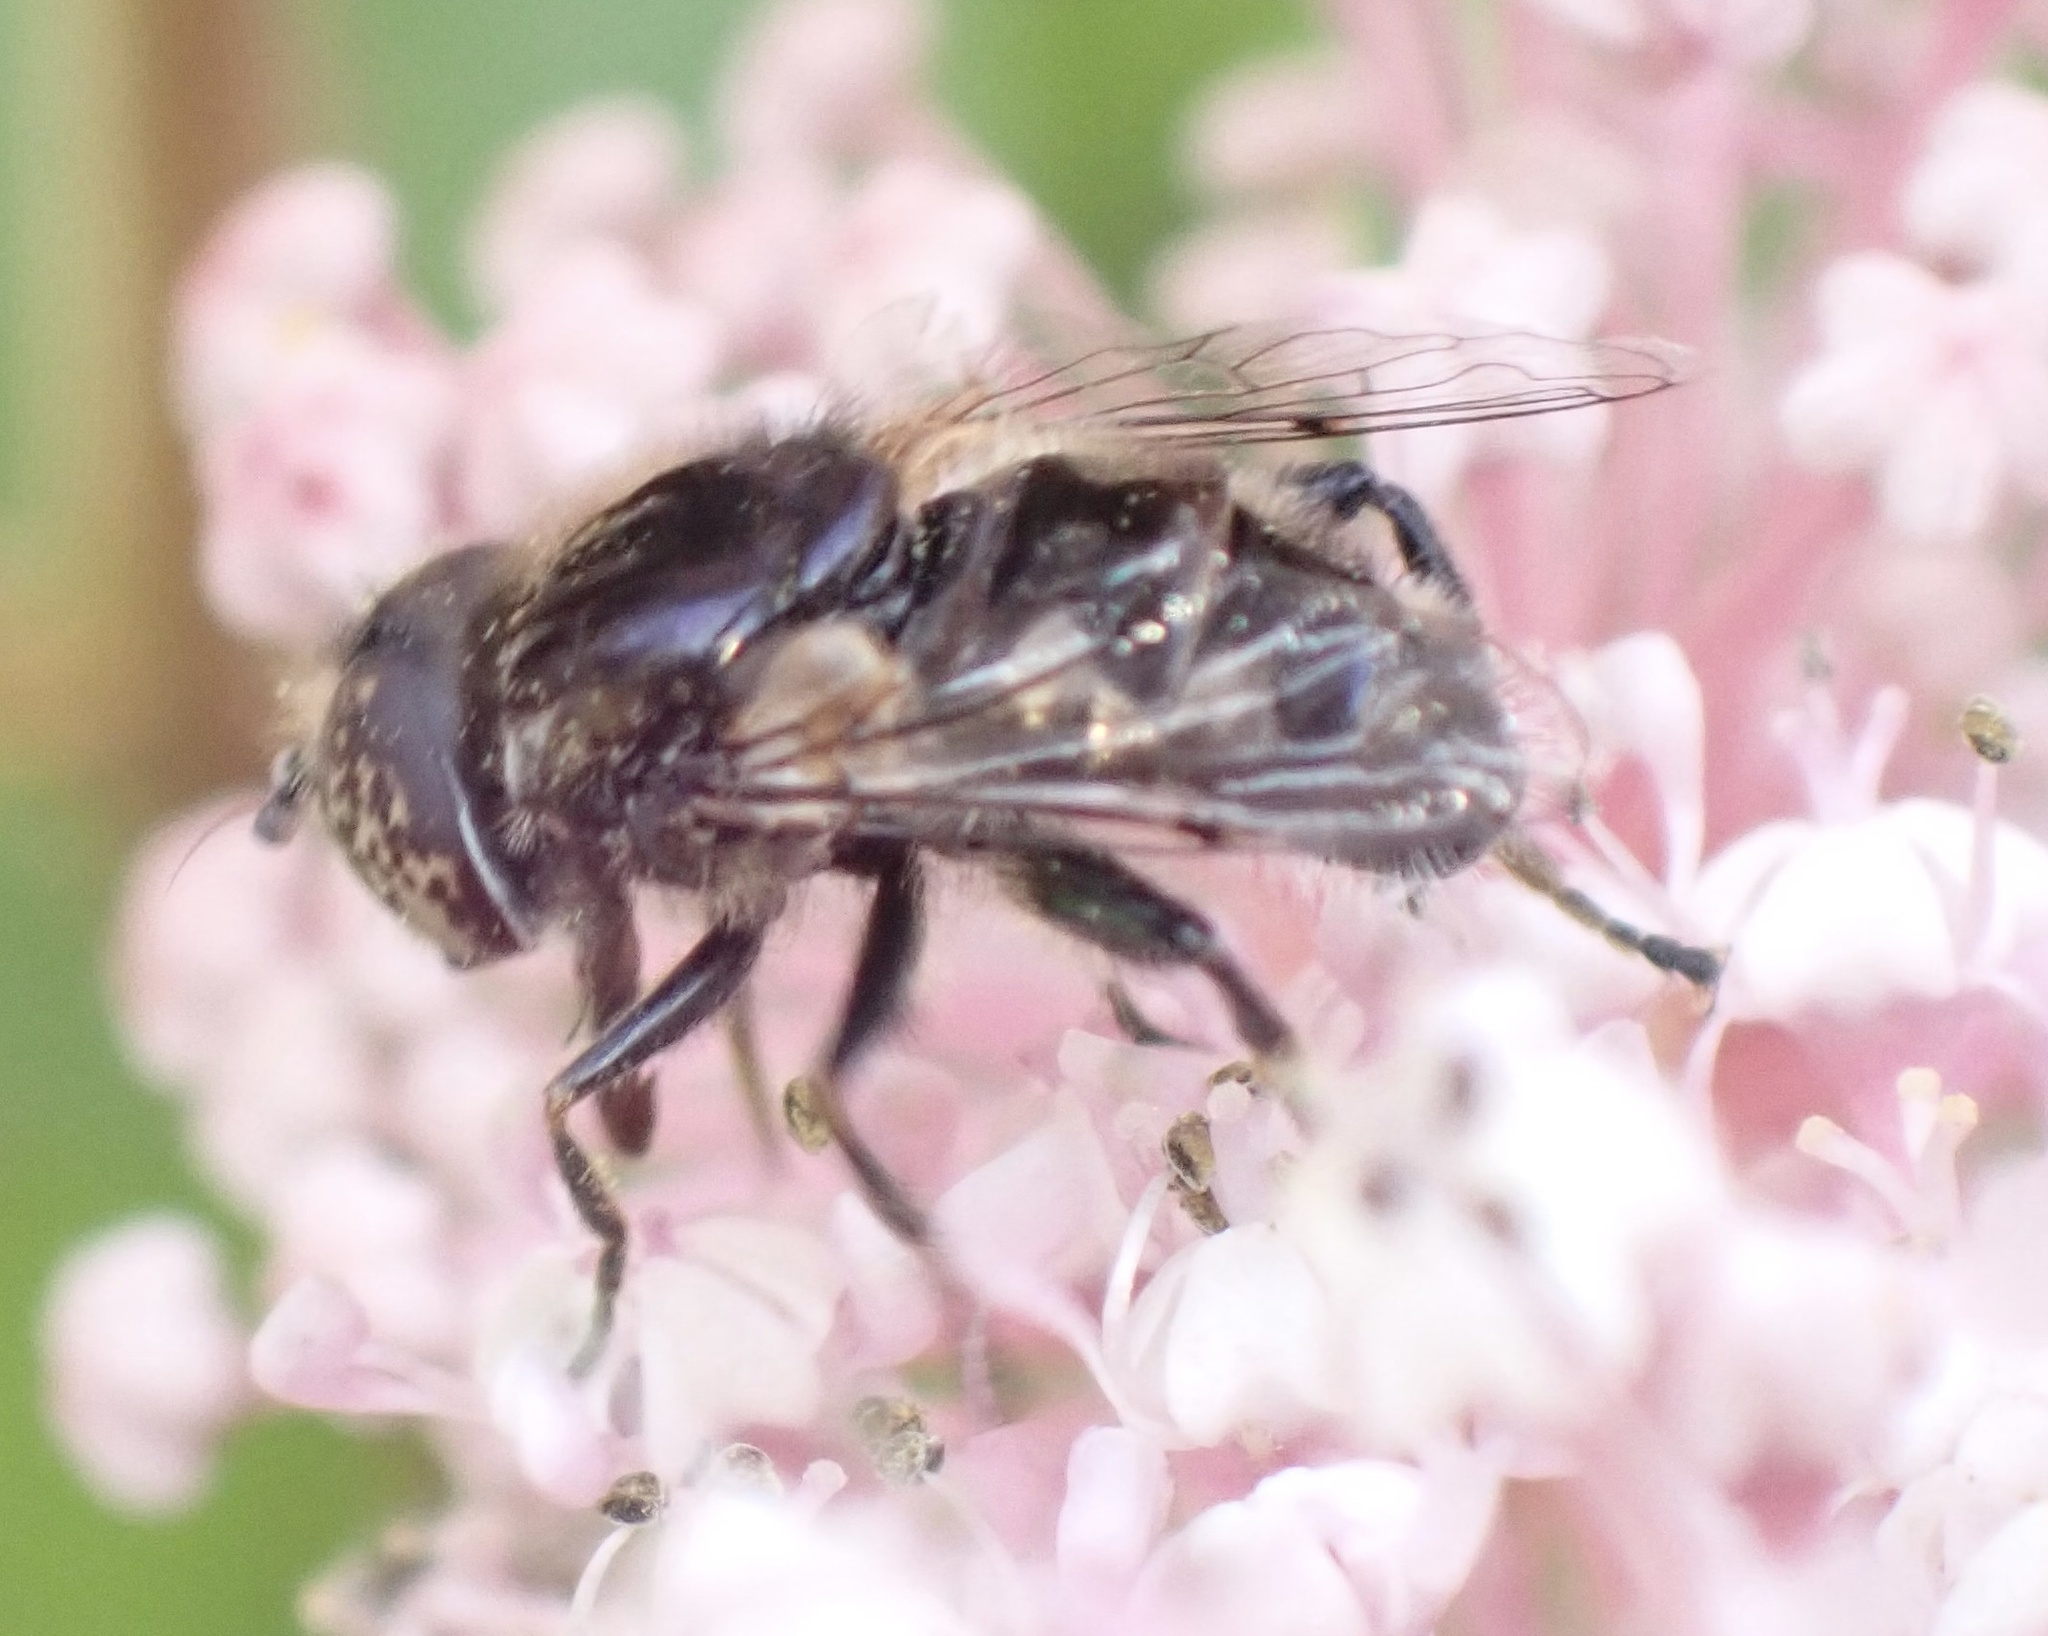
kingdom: Animalia
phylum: Arthropoda
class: Insecta
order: Diptera
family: Syrphidae
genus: Eristalinus
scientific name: Eristalinus sepulchralis
